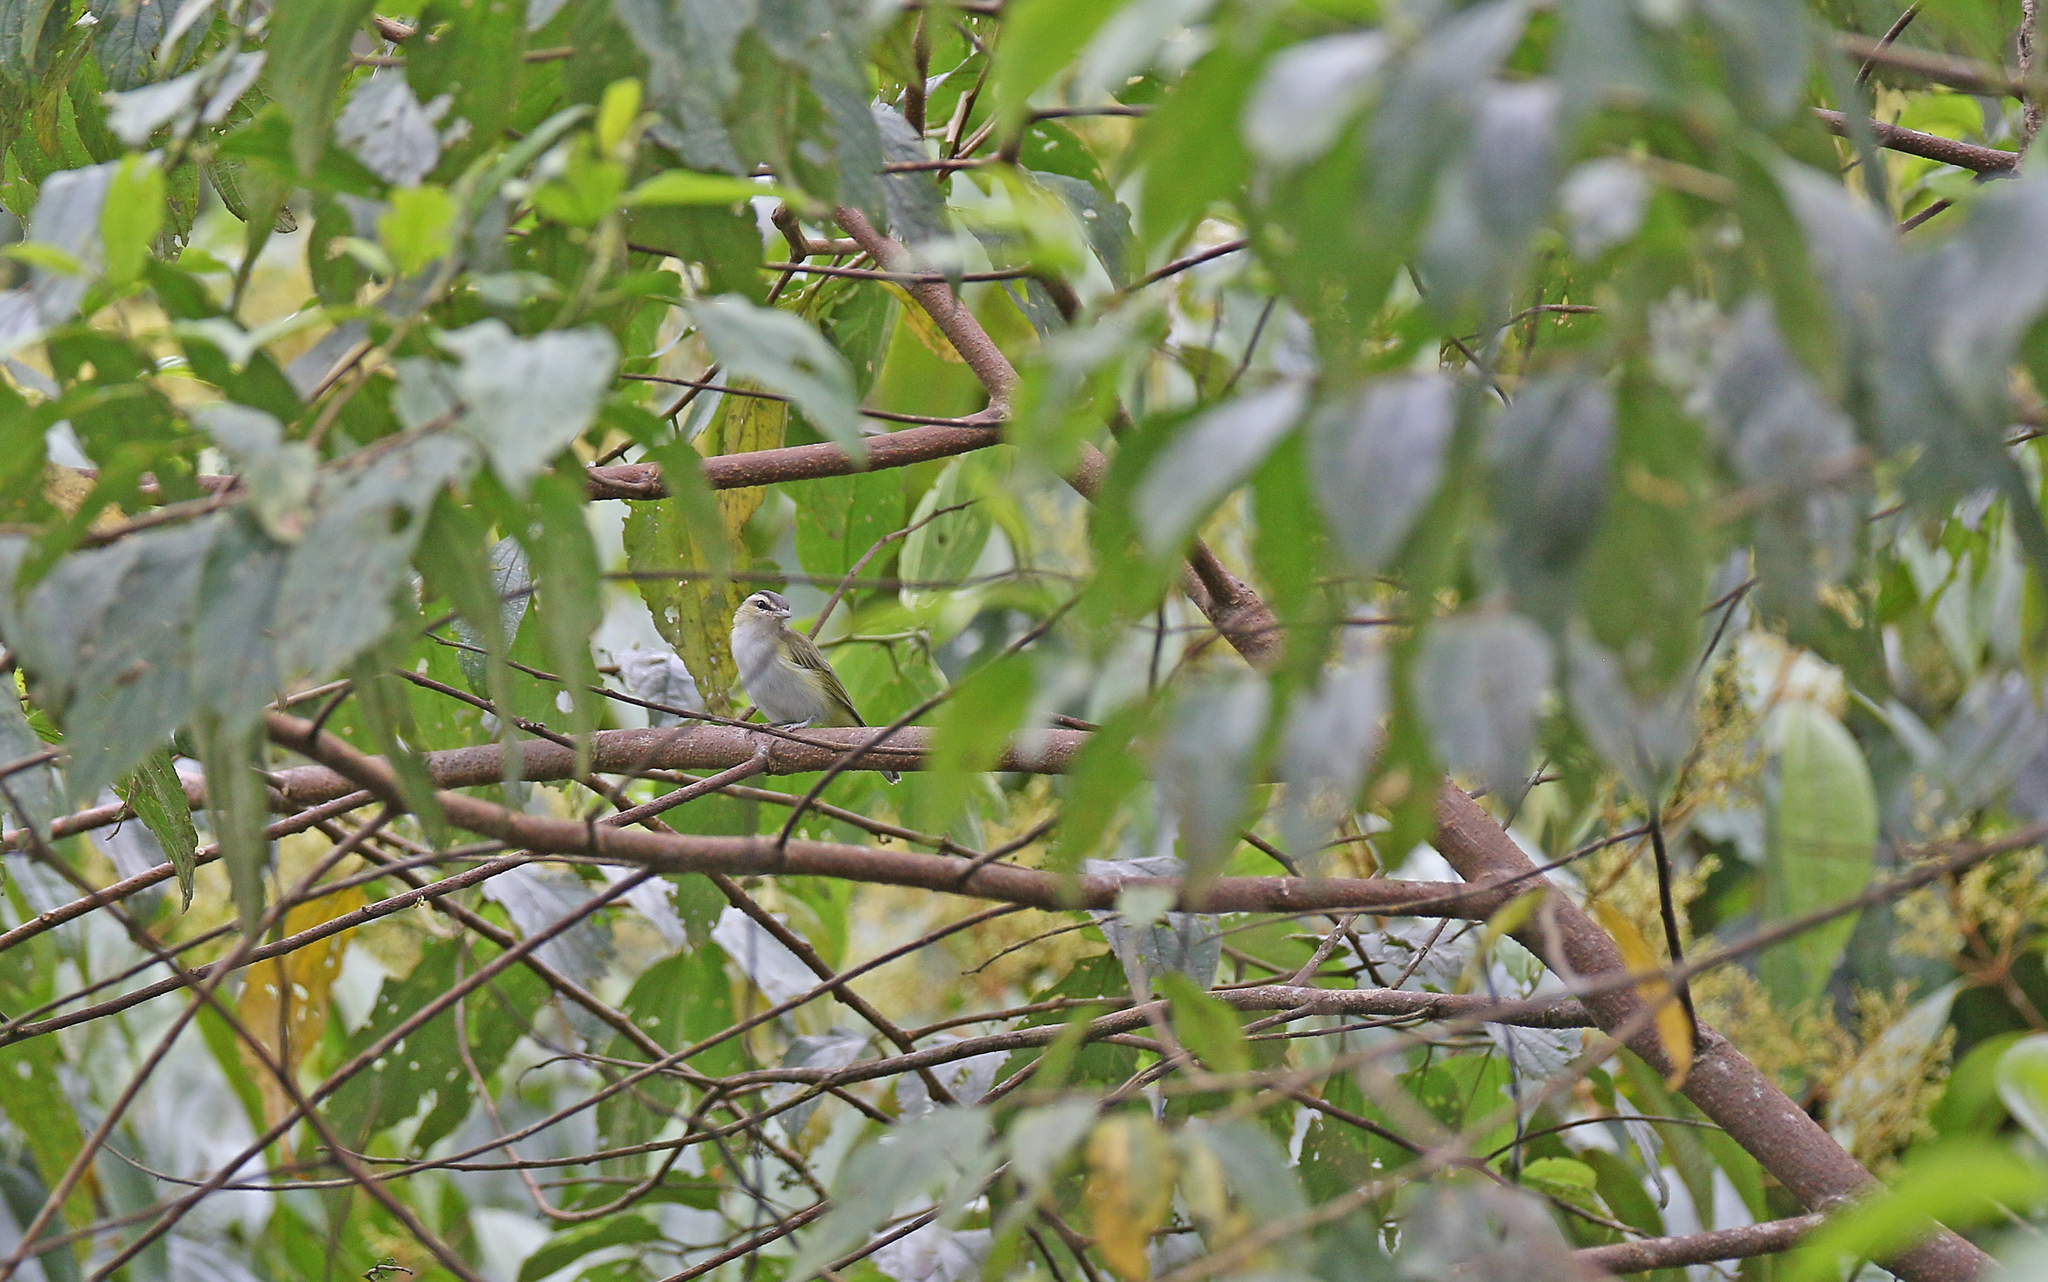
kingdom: Animalia
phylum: Chordata
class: Aves
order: Passeriformes
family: Vireonidae
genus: Vireo
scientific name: Vireo olivaceus
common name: Red-eyed vireo
